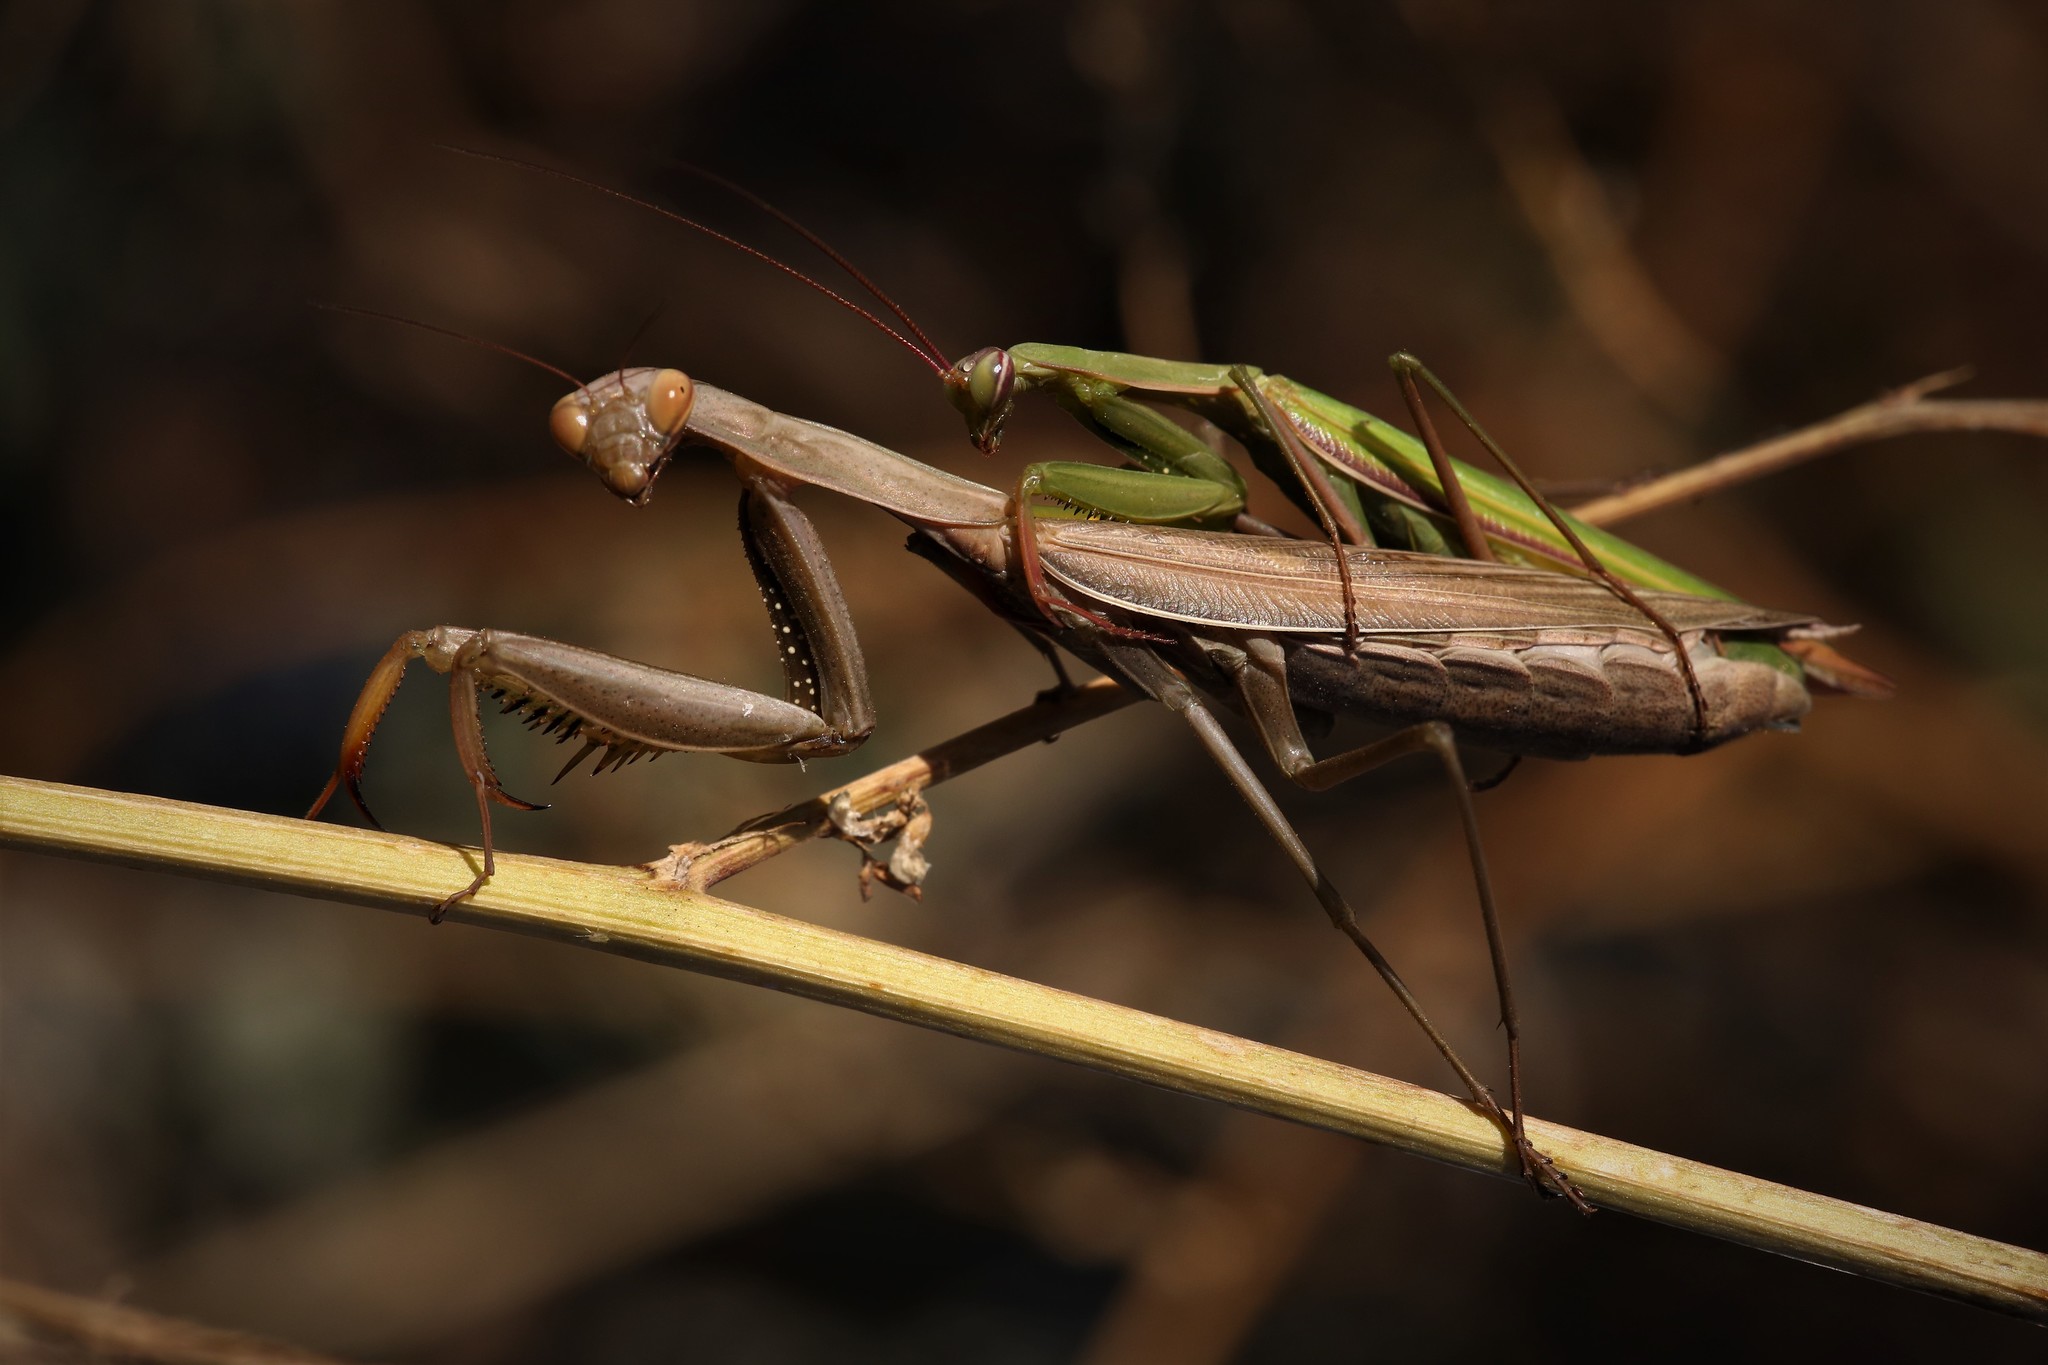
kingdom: Animalia
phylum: Arthropoda
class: Insecta
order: Mantodea
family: Mantidae
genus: Mantis
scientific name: Mantis religiosa
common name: Praying mantis
